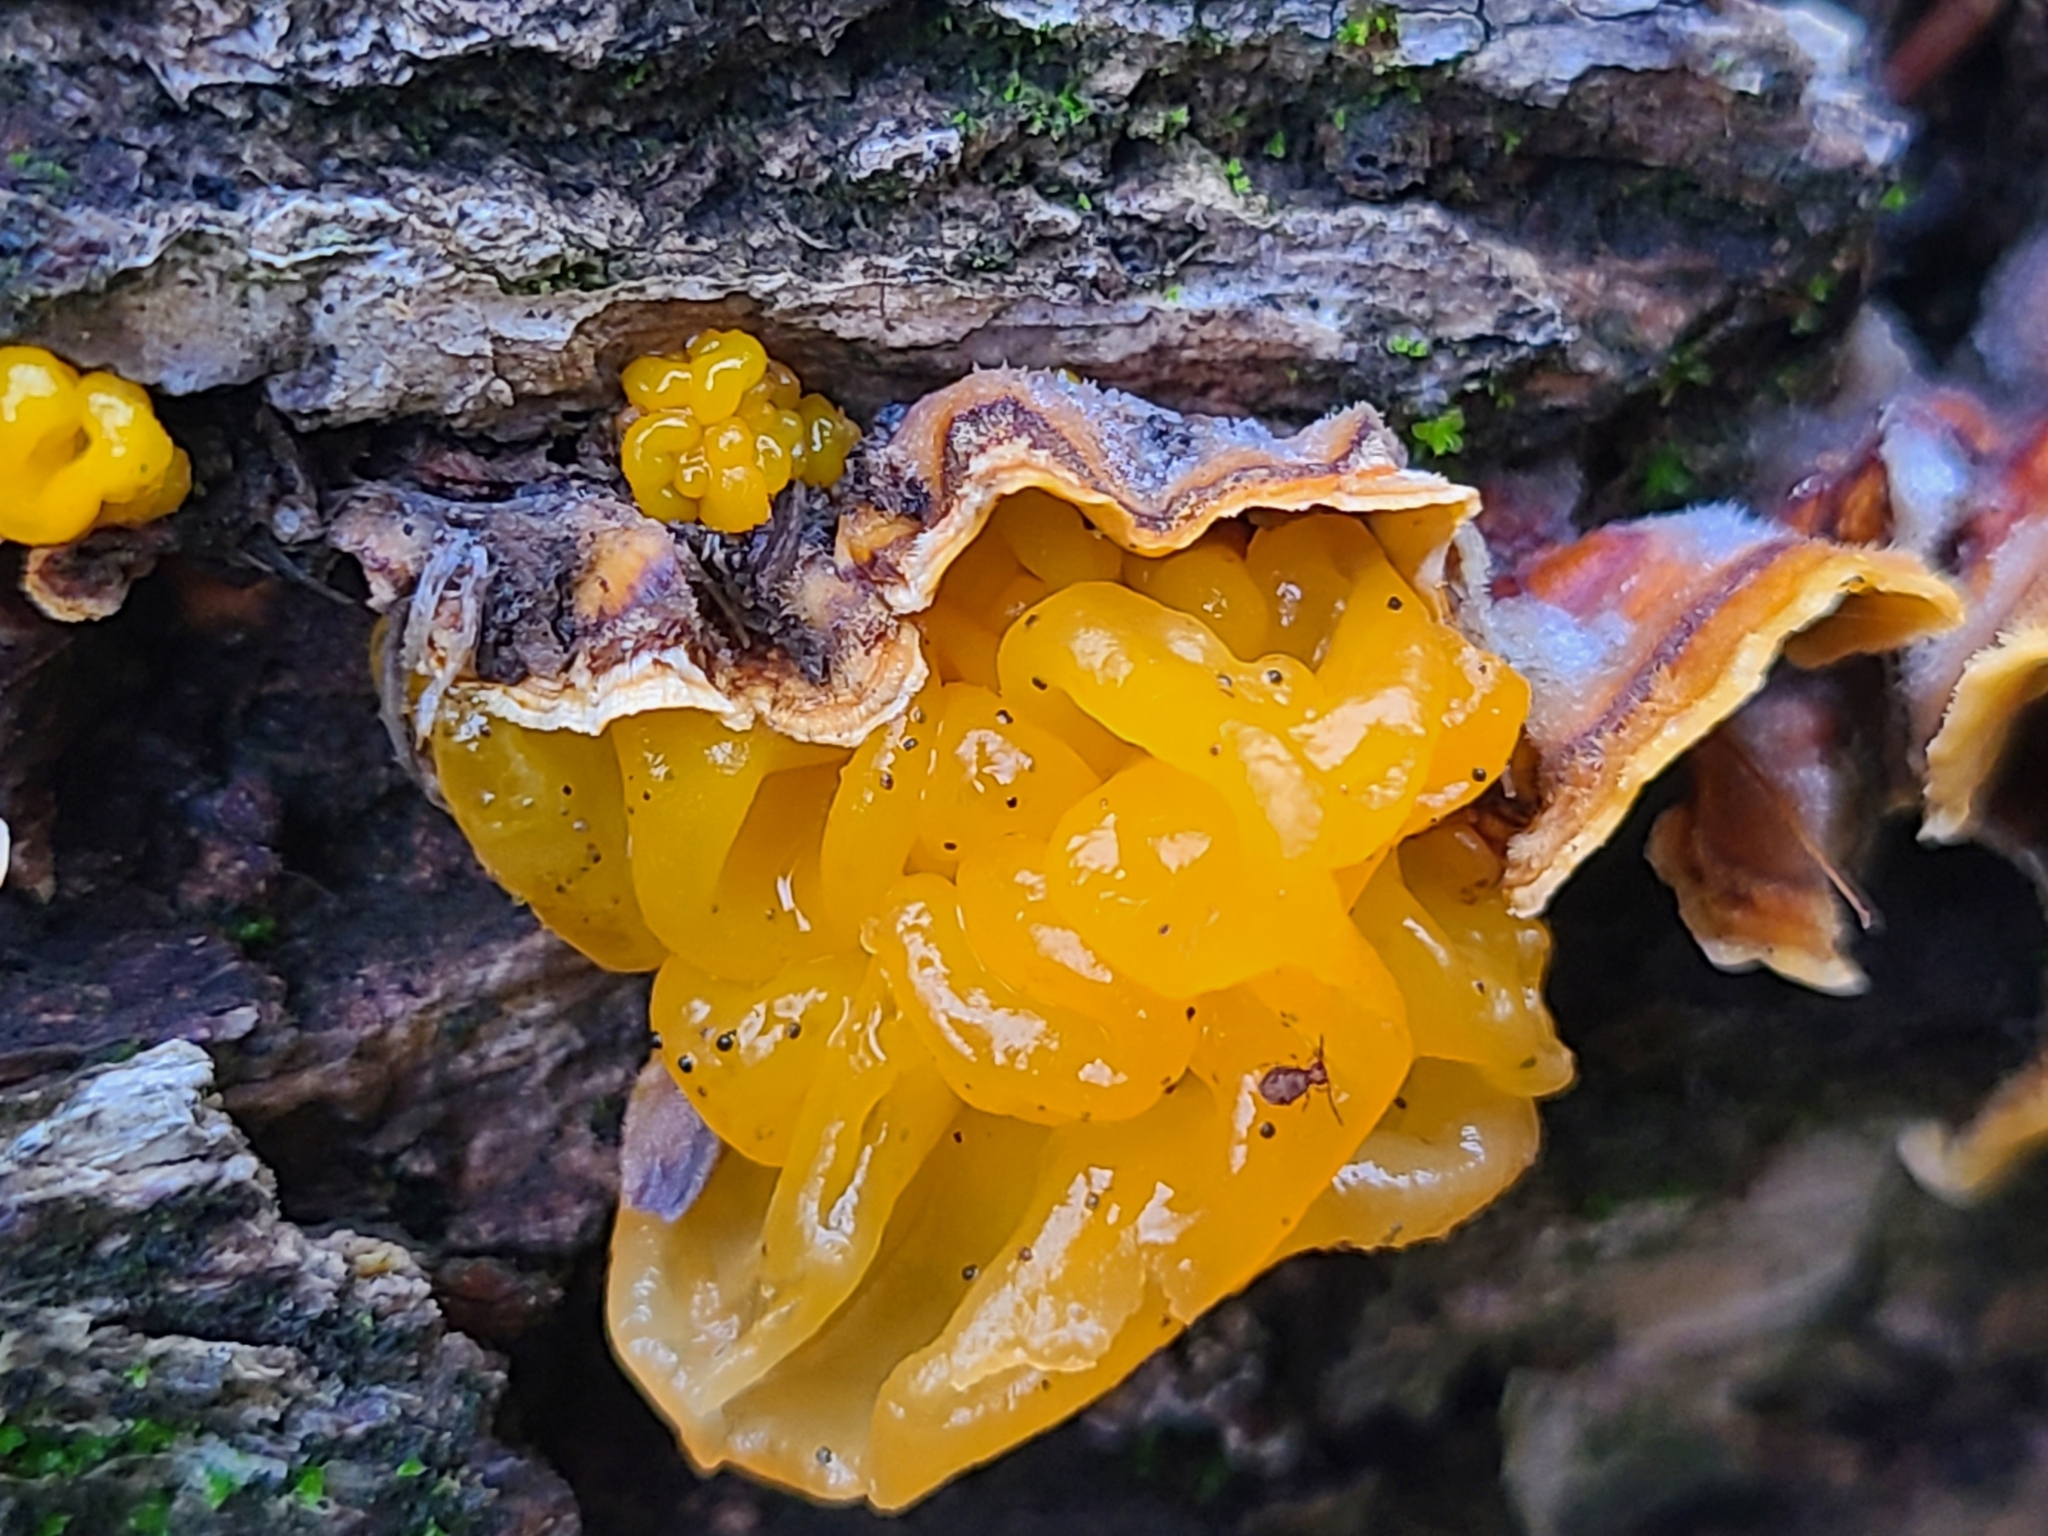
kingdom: Fungi
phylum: Basidiomycota
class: Tremellomycetes
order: Tremellales
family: Naemateliaceae
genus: Naematelia
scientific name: Naematelia aurantia
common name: Golden ear
